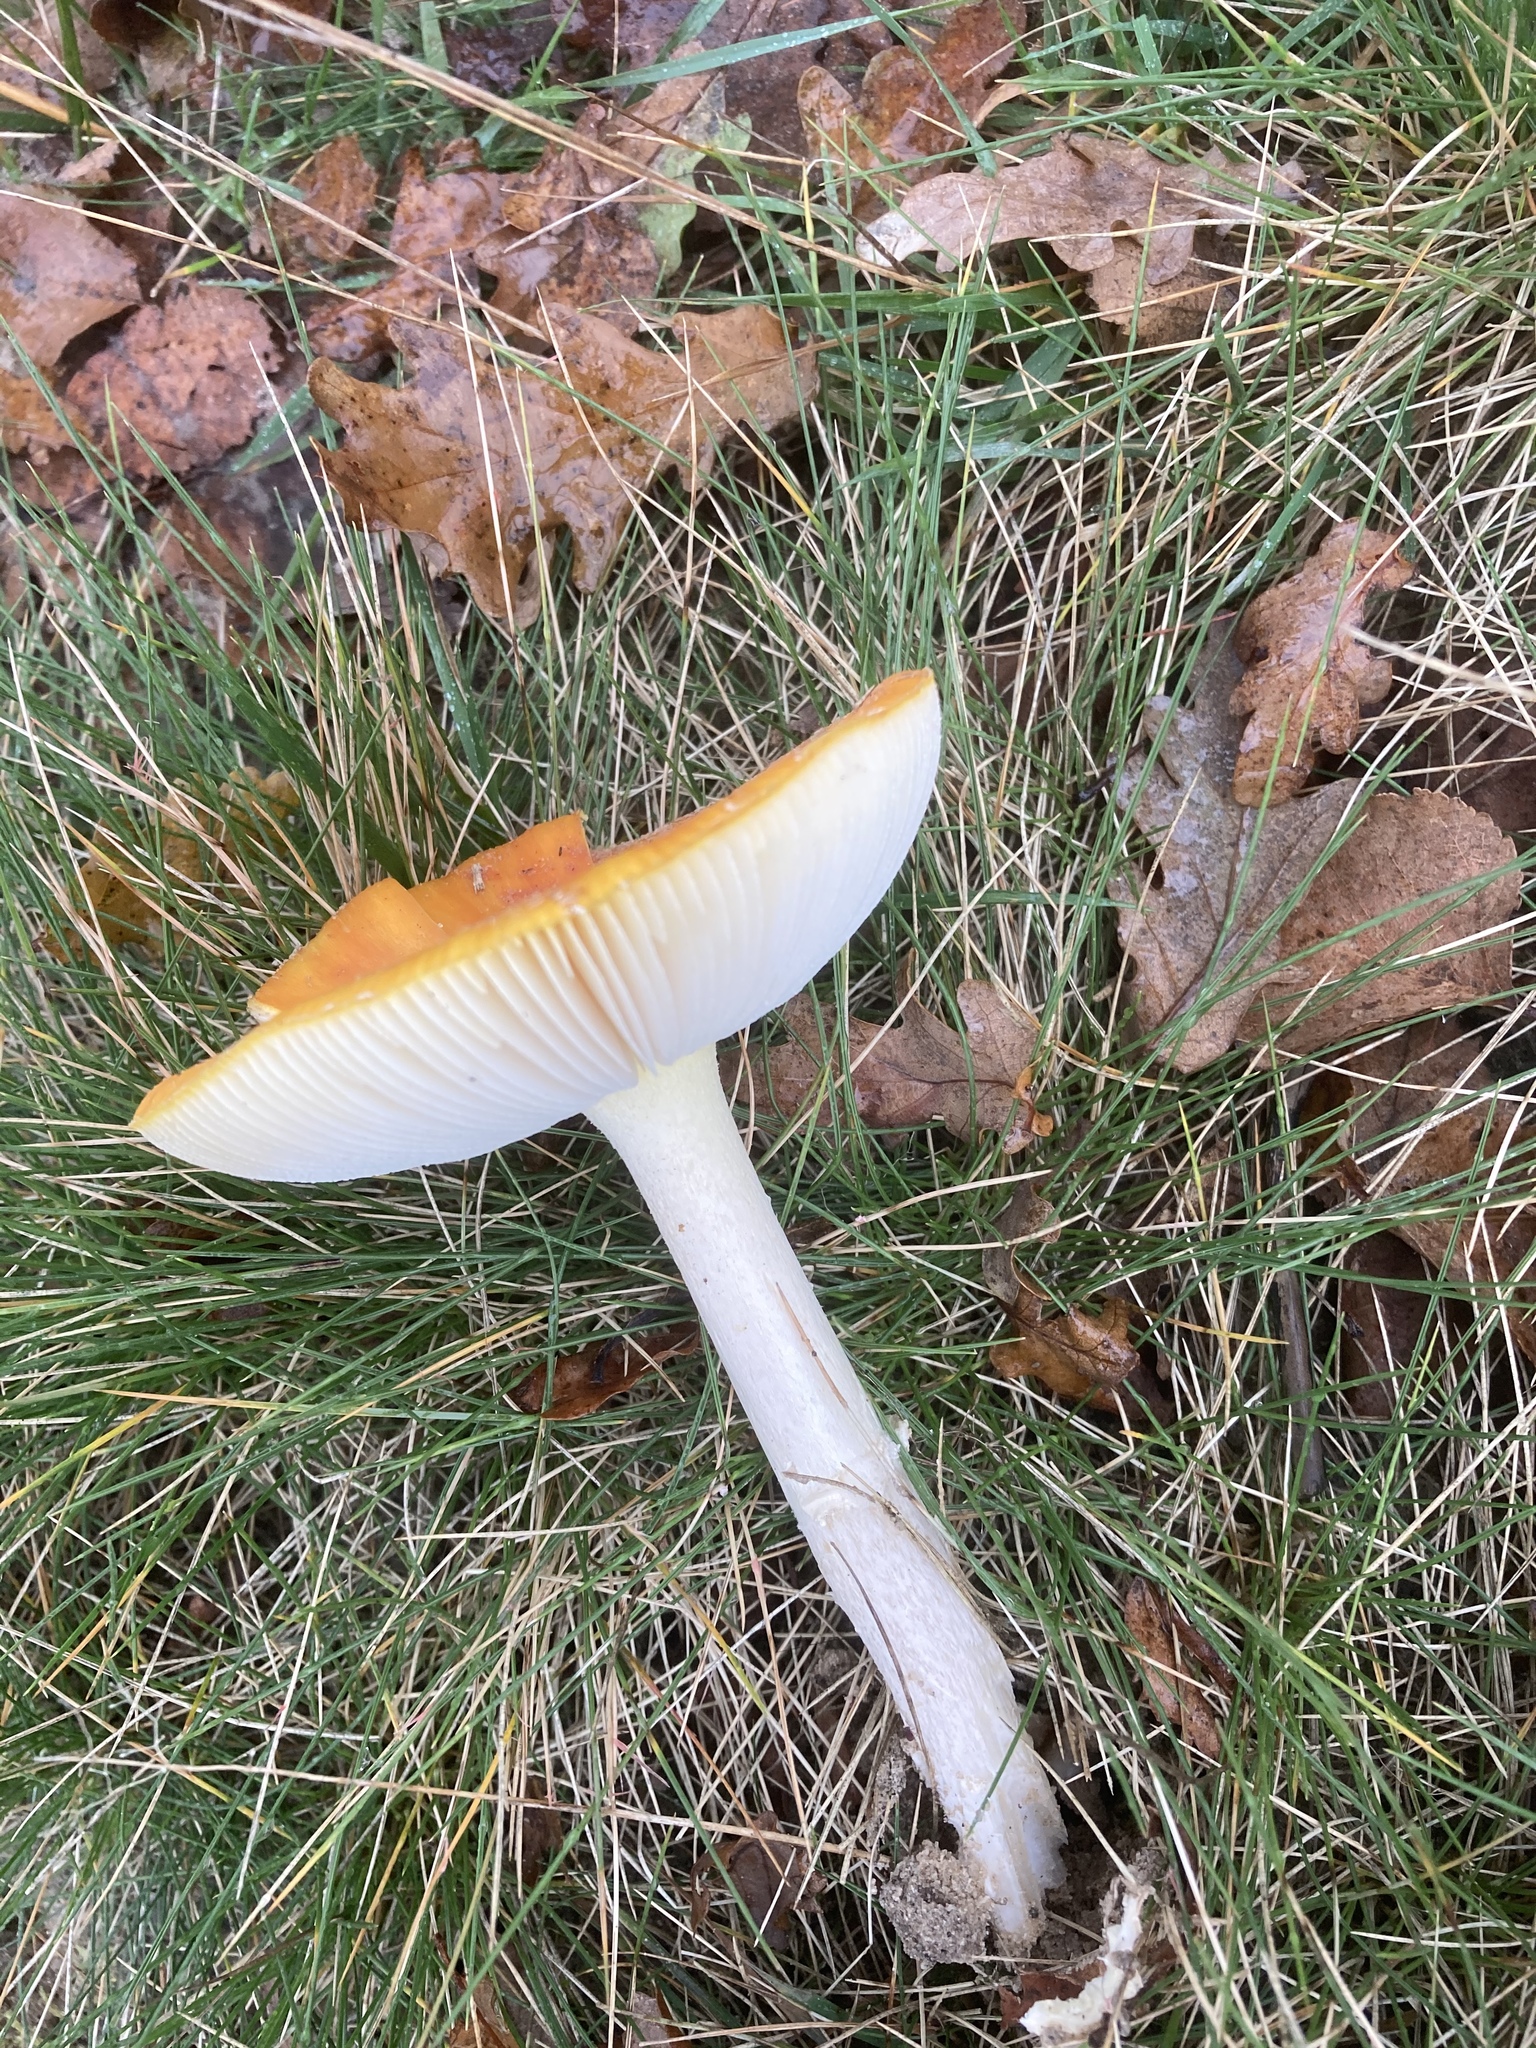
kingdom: Fungi
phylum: Basidiomycota
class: Agaricomycetes
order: Agaricales
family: Amanitaceae
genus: Amanita
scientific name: Amanita muscaria
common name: Fly agaric
